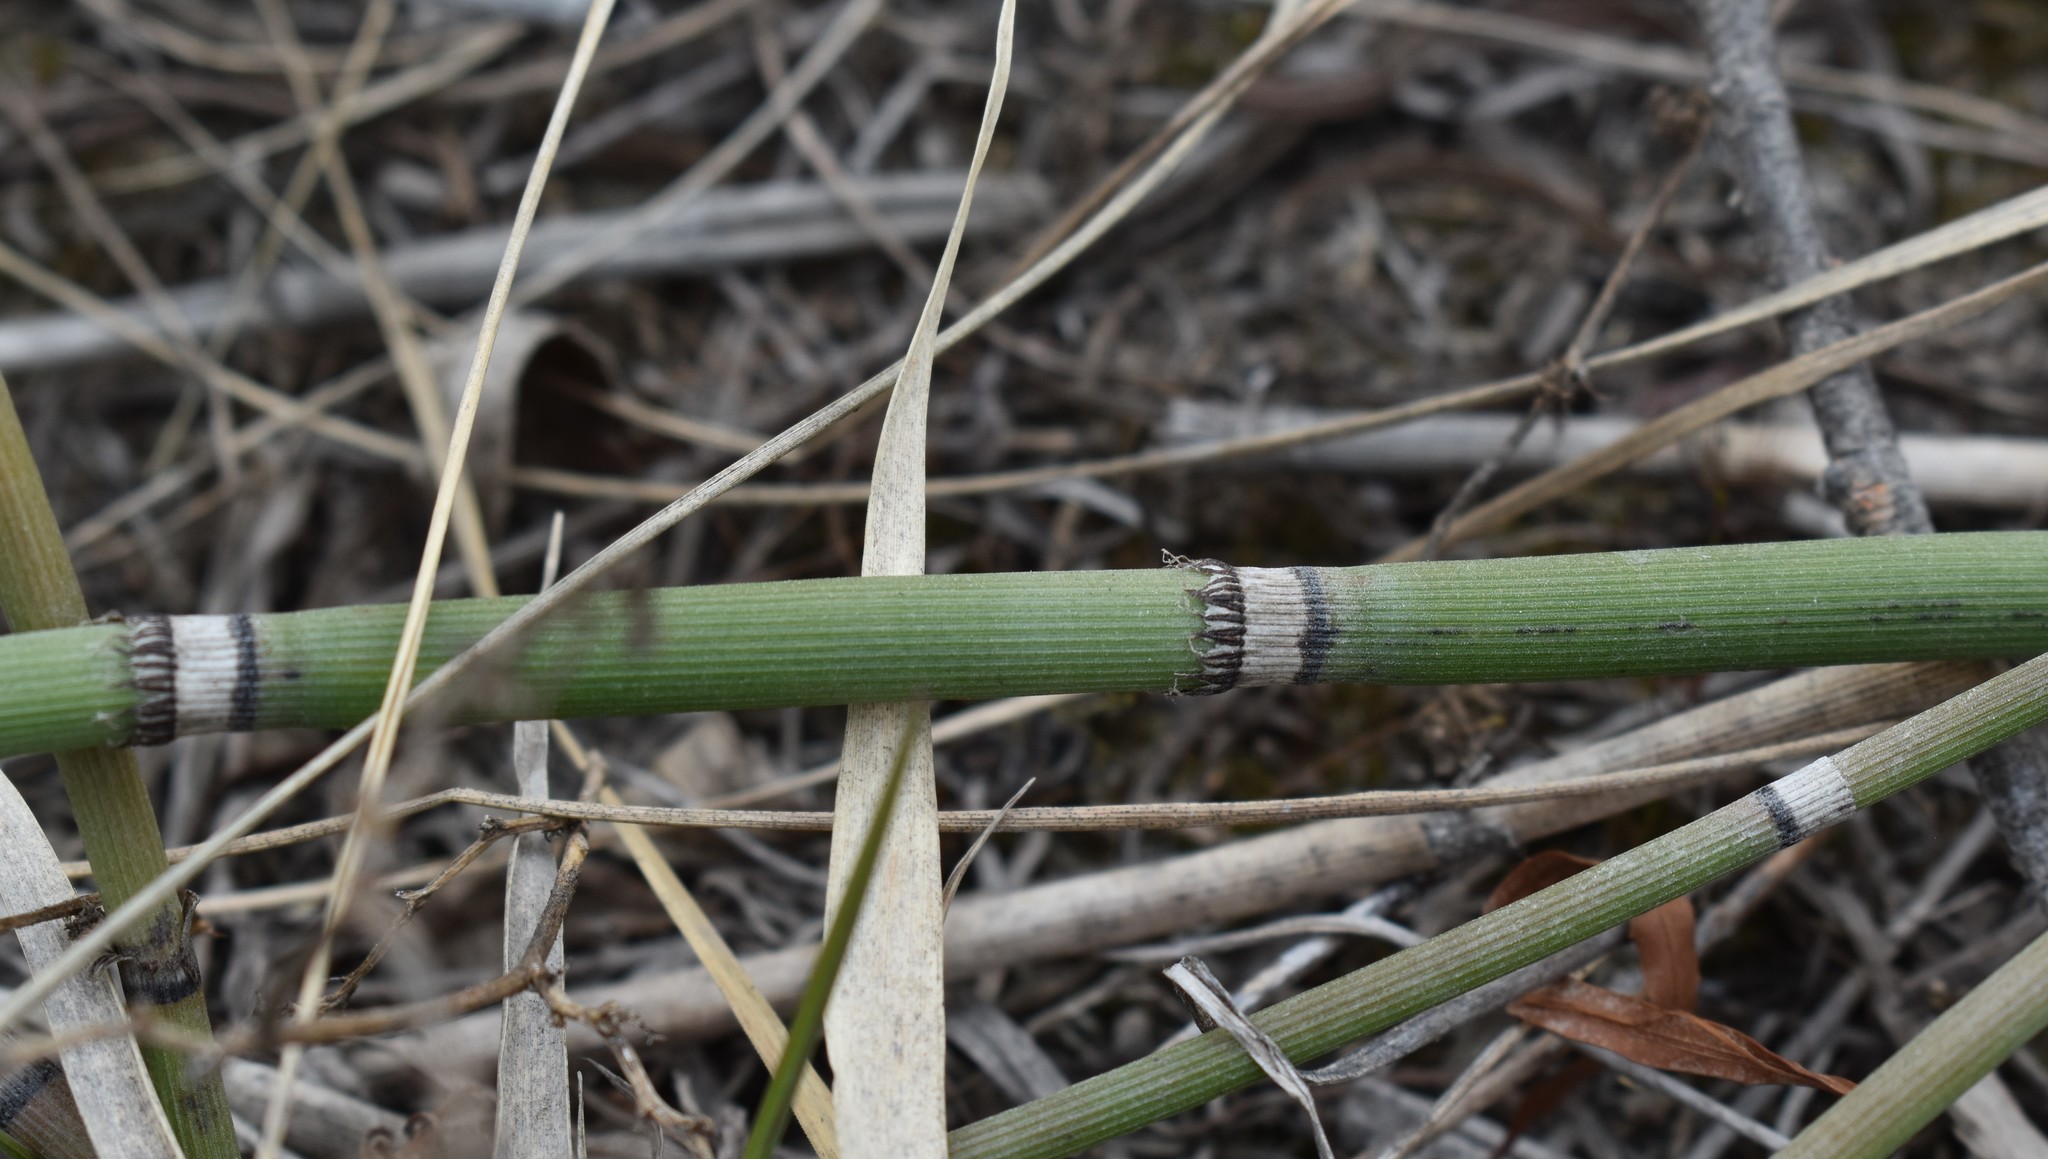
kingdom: Plantae
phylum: Tracheophyta
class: Polypodiopsida
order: Equisetales
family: Equisetaceae
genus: Equisetum
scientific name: Equisetum hyemale
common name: Rough horsetail
